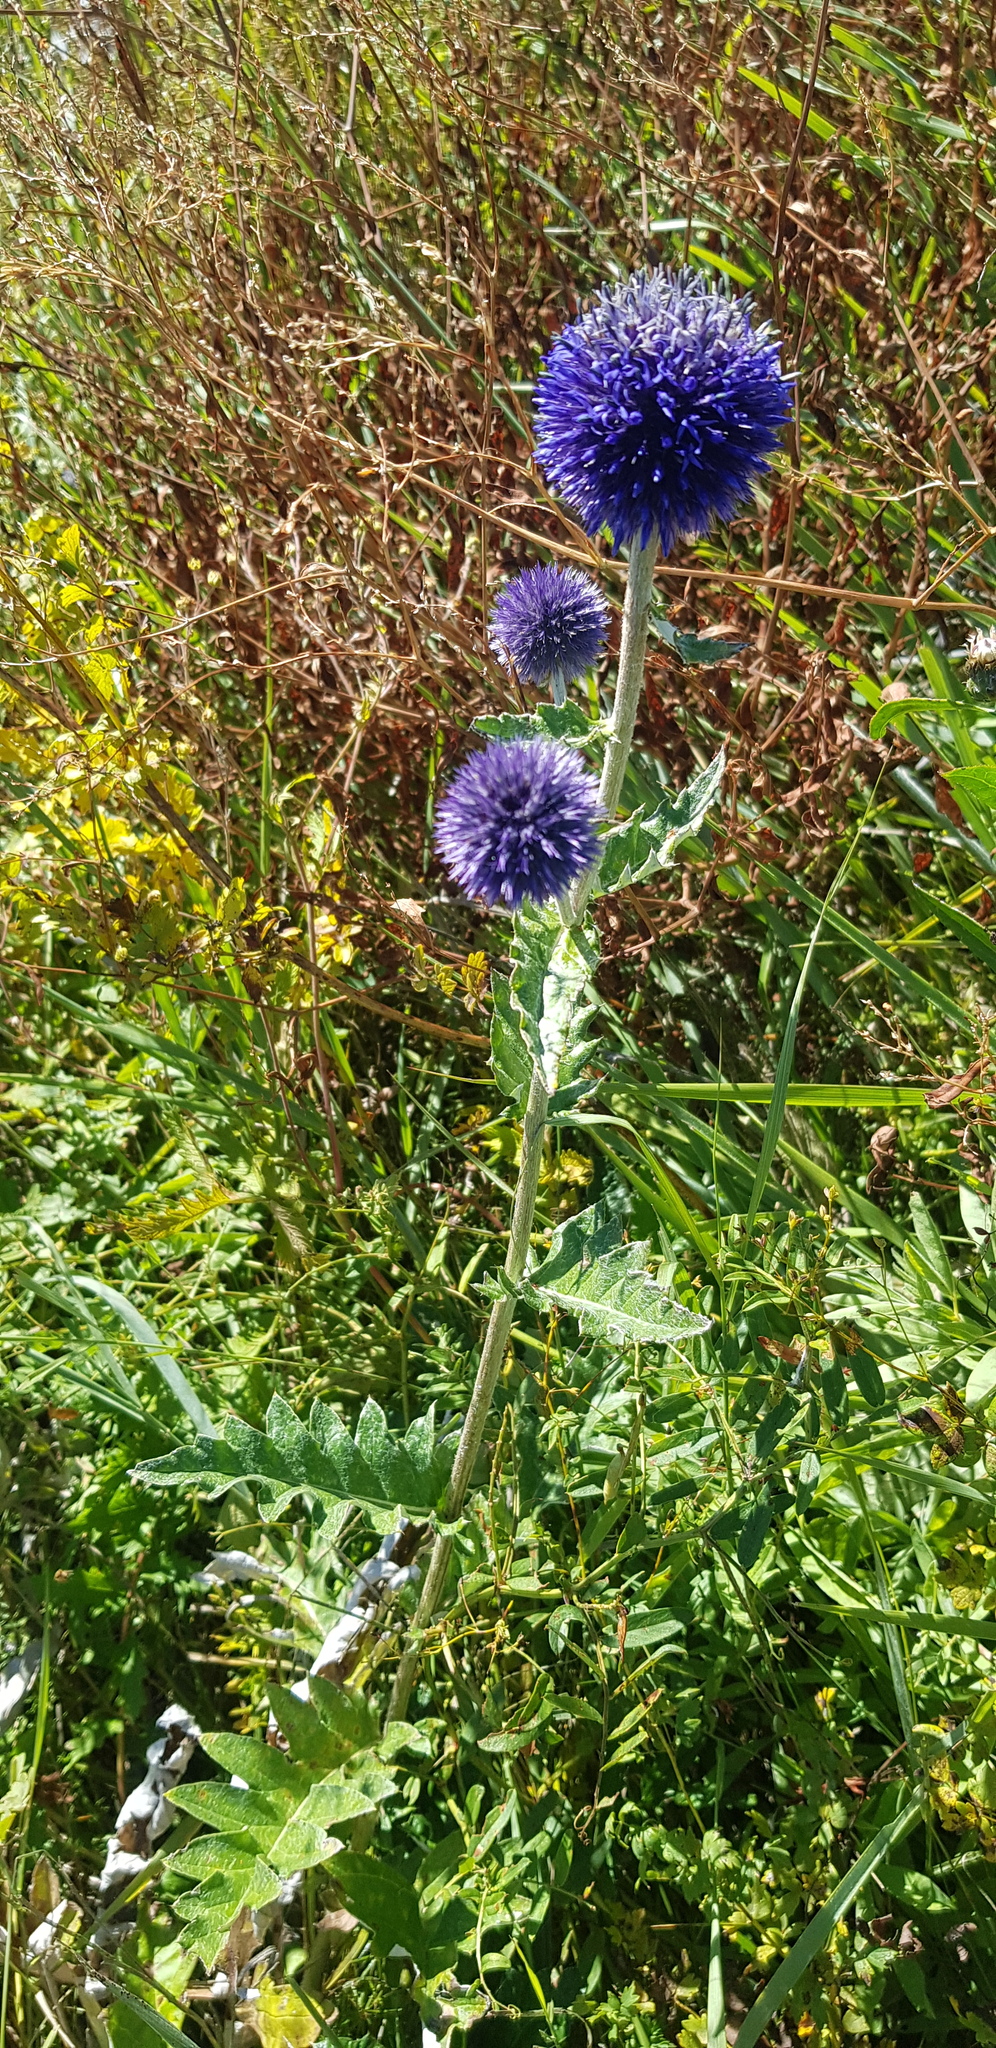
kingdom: Plantae
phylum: Tracheophyta
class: Magnoliopsida
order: Asterales
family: Asteraceae
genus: Echinops
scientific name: Echinops davuricus
